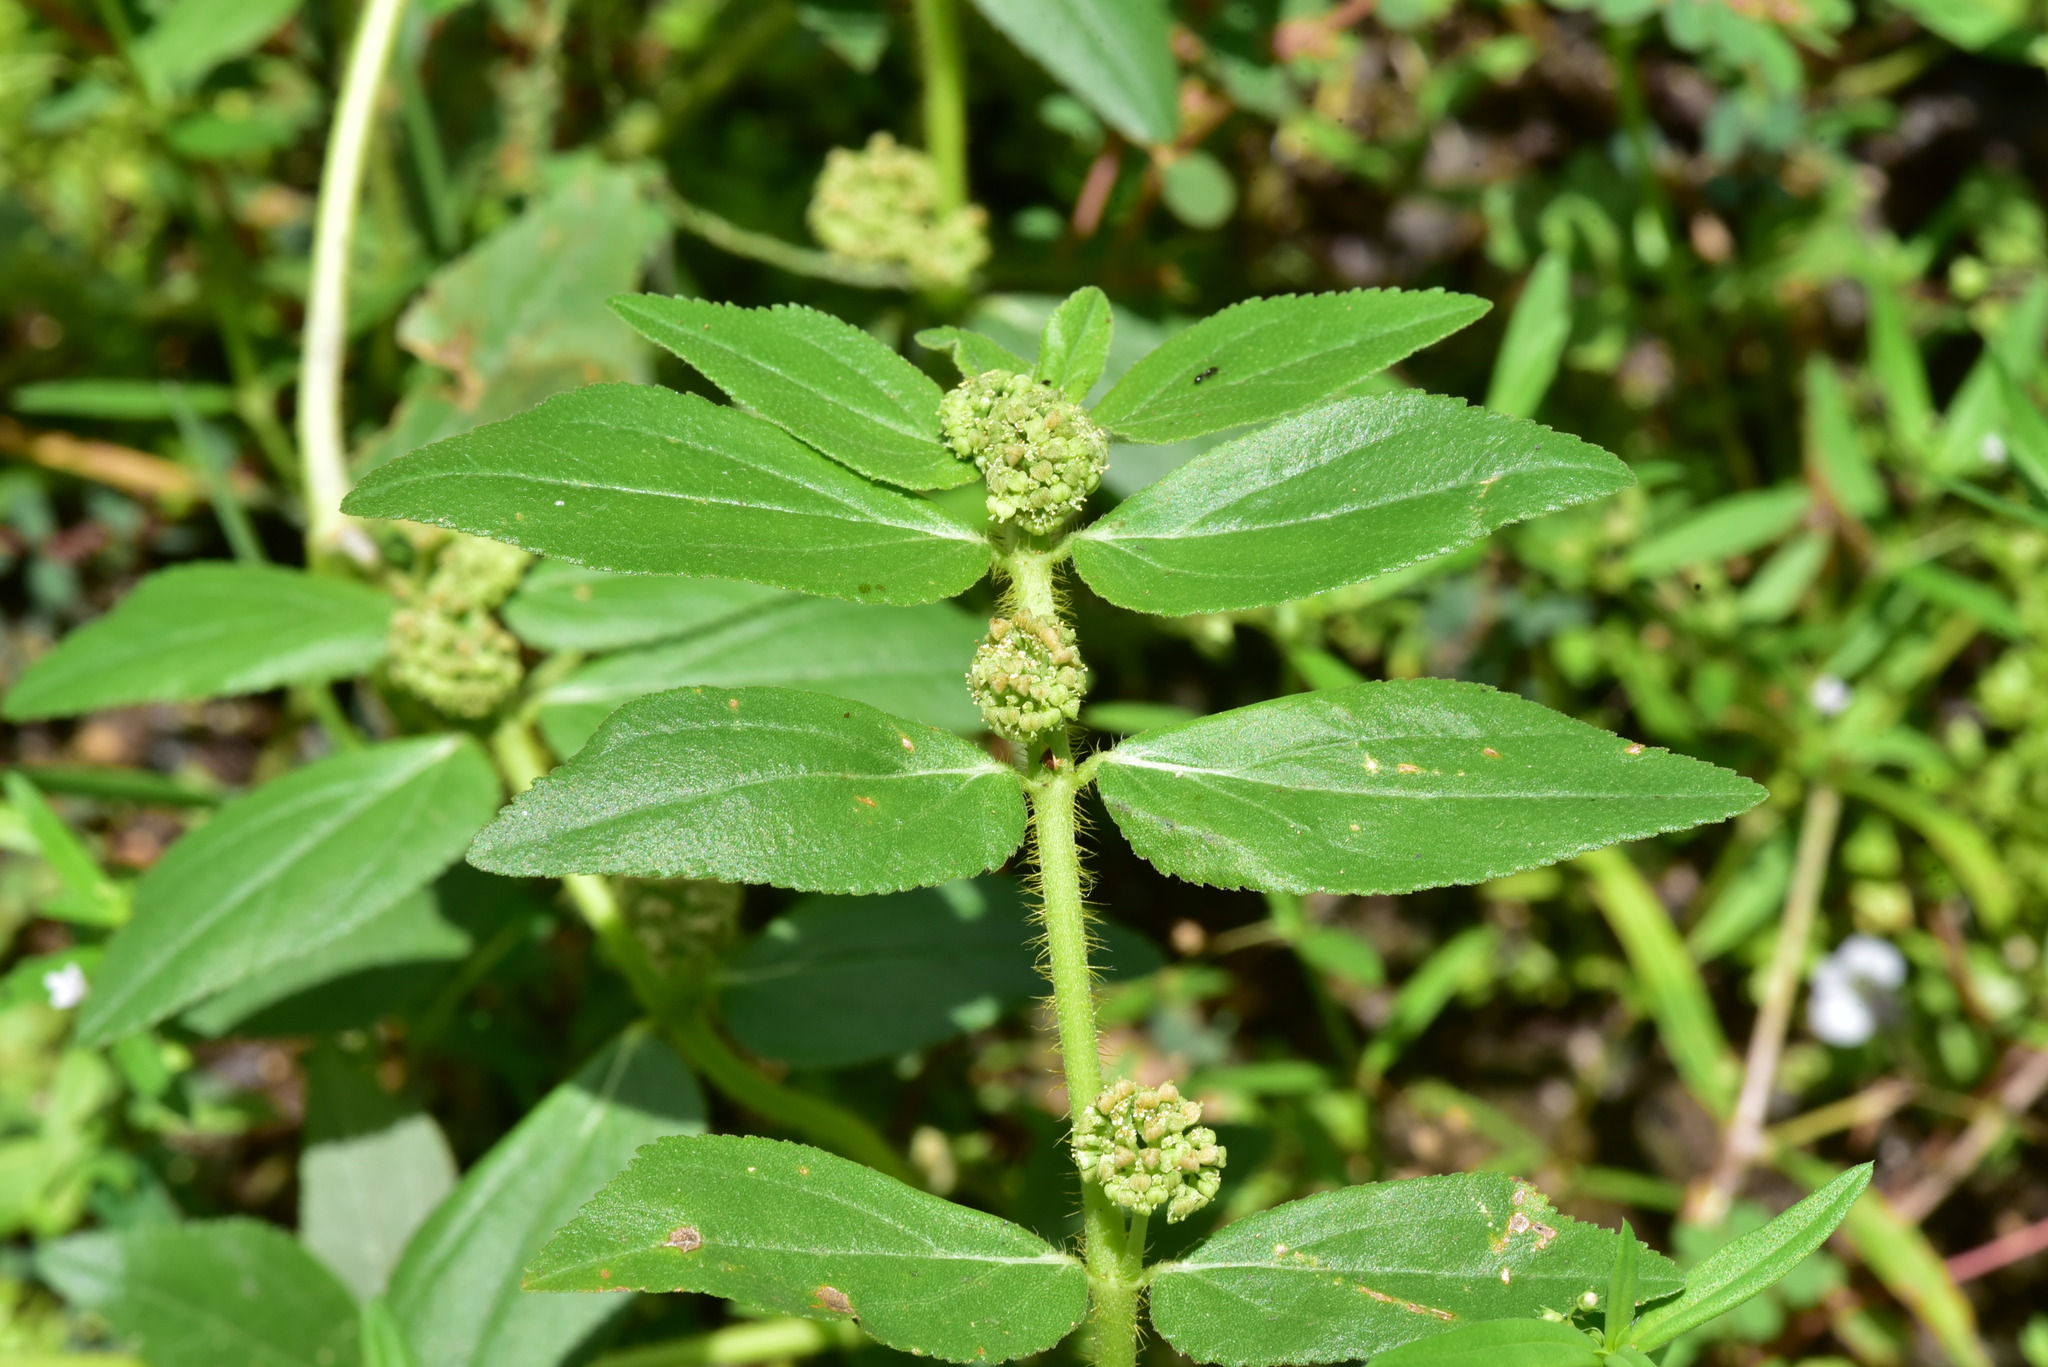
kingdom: Plantae
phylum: Tracheophyta
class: Magnoliopsida
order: Malpighiales
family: Euphorbiaceae
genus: Euphorbia
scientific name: Euphorbia hirta
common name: Pillpod sandmat
